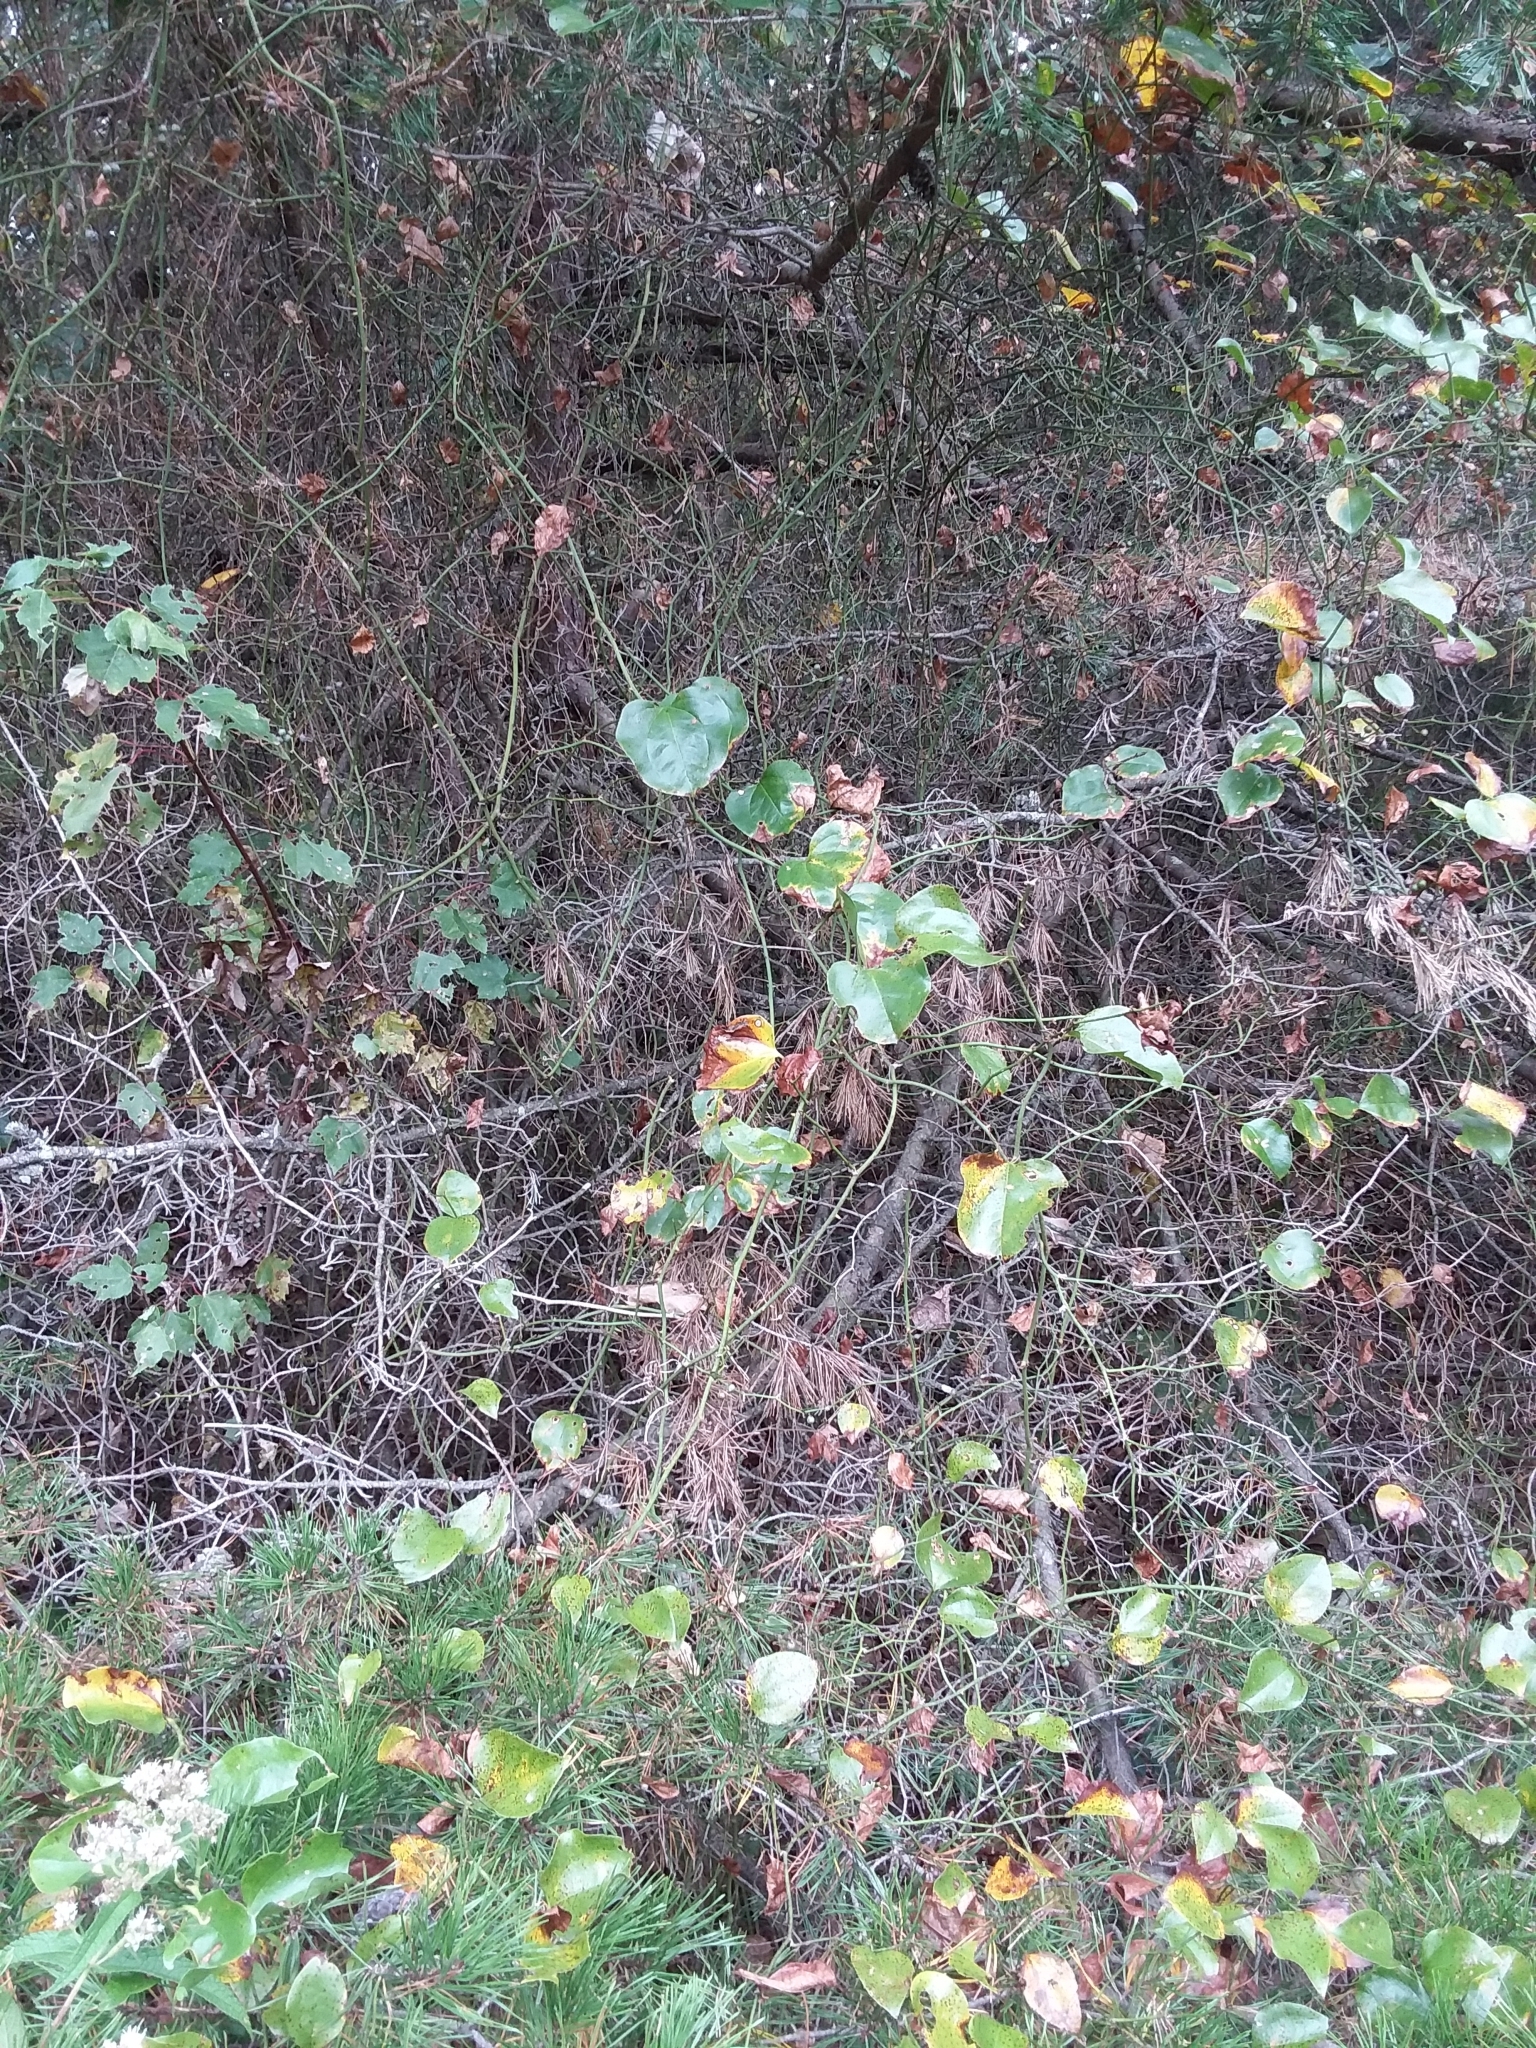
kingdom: Plantae
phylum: Tracheophyta
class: Liliopsida
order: Liliales
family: Smilacaceae
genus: Smilax
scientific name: Smilax rotundifolia
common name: Bullbriar
